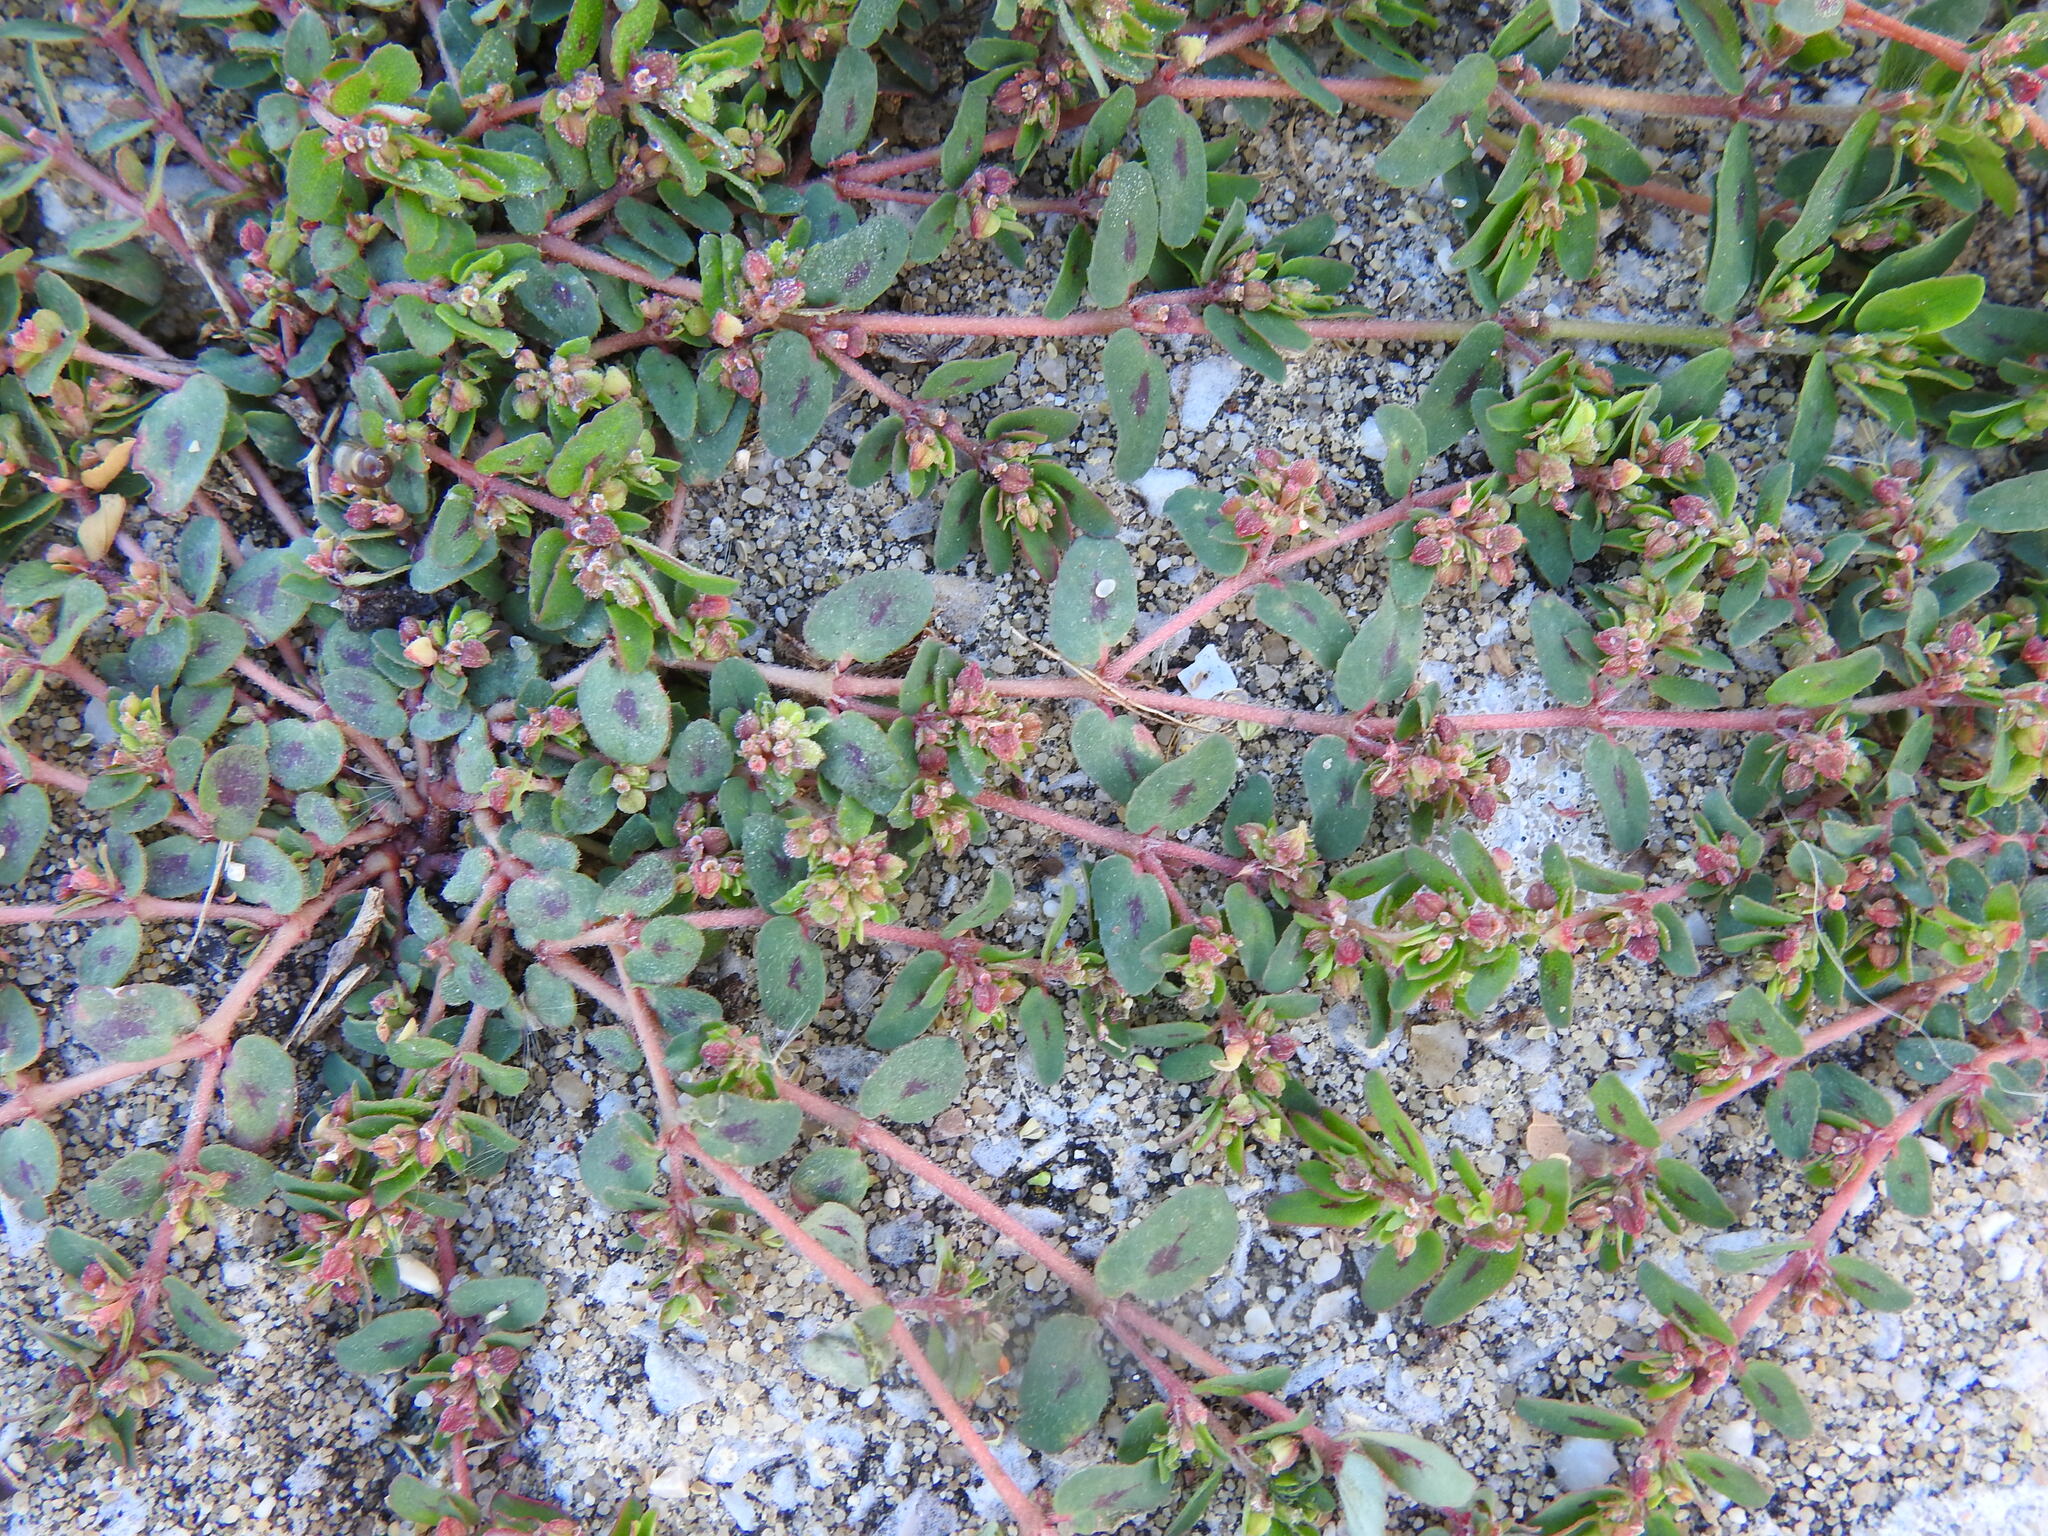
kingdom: Plantae
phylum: Tracheophyta
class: Magnoliopsida
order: Malpighiales
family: Euphorbiaceae
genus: Euphorbia
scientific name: Euphorbia maculata
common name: Spotted spurge
